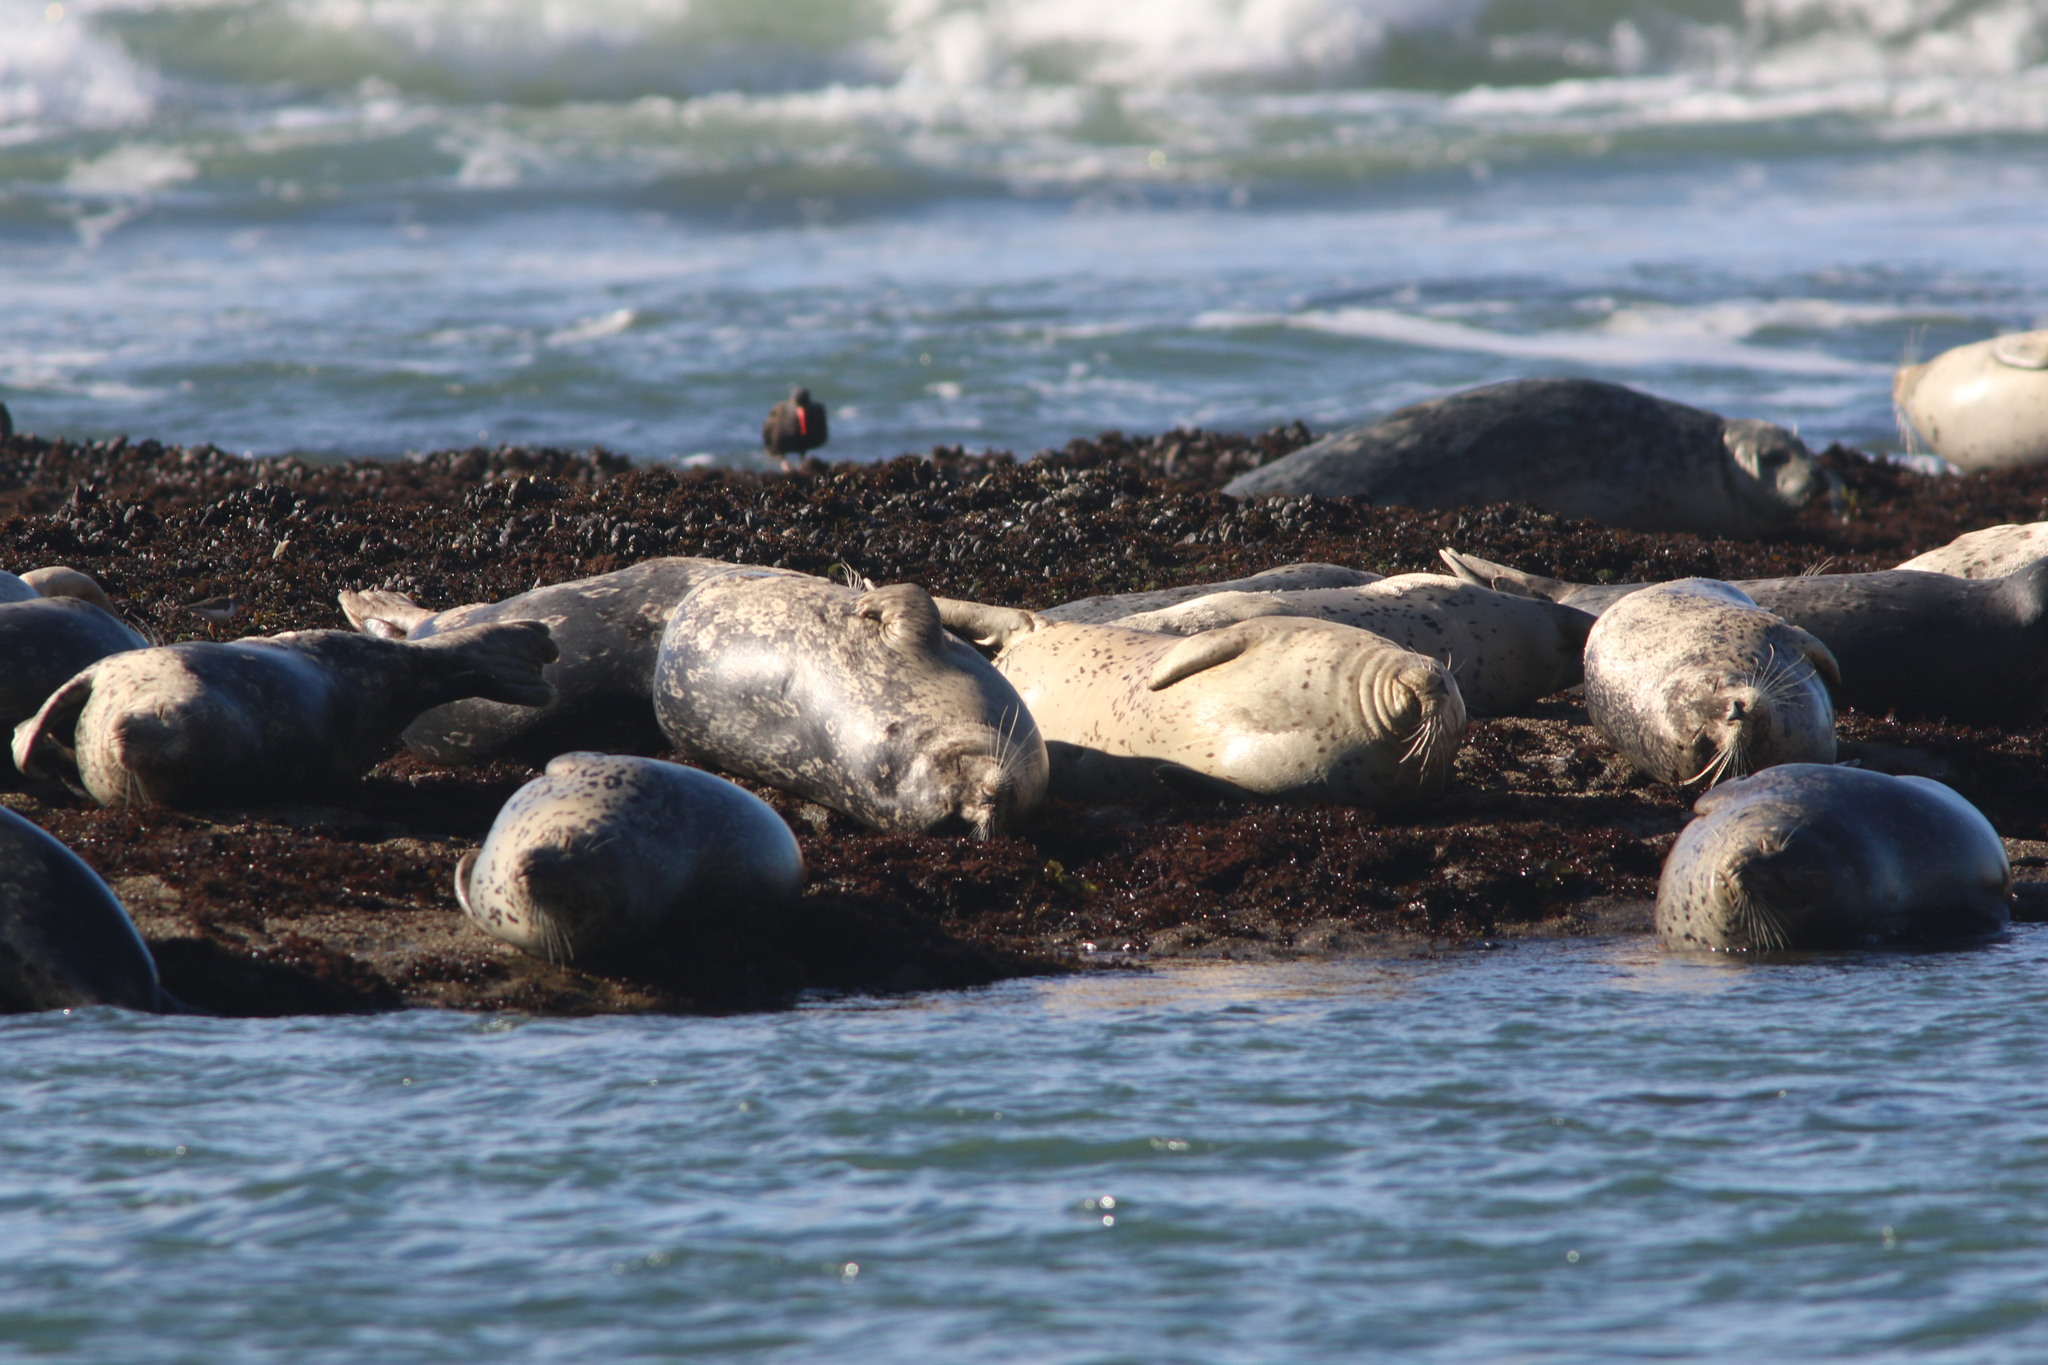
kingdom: Animalia
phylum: Chordata
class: Mammalia
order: Carnivora
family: Phocidae
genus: Phoca
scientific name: Phoca vitulina
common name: Harbor seal
